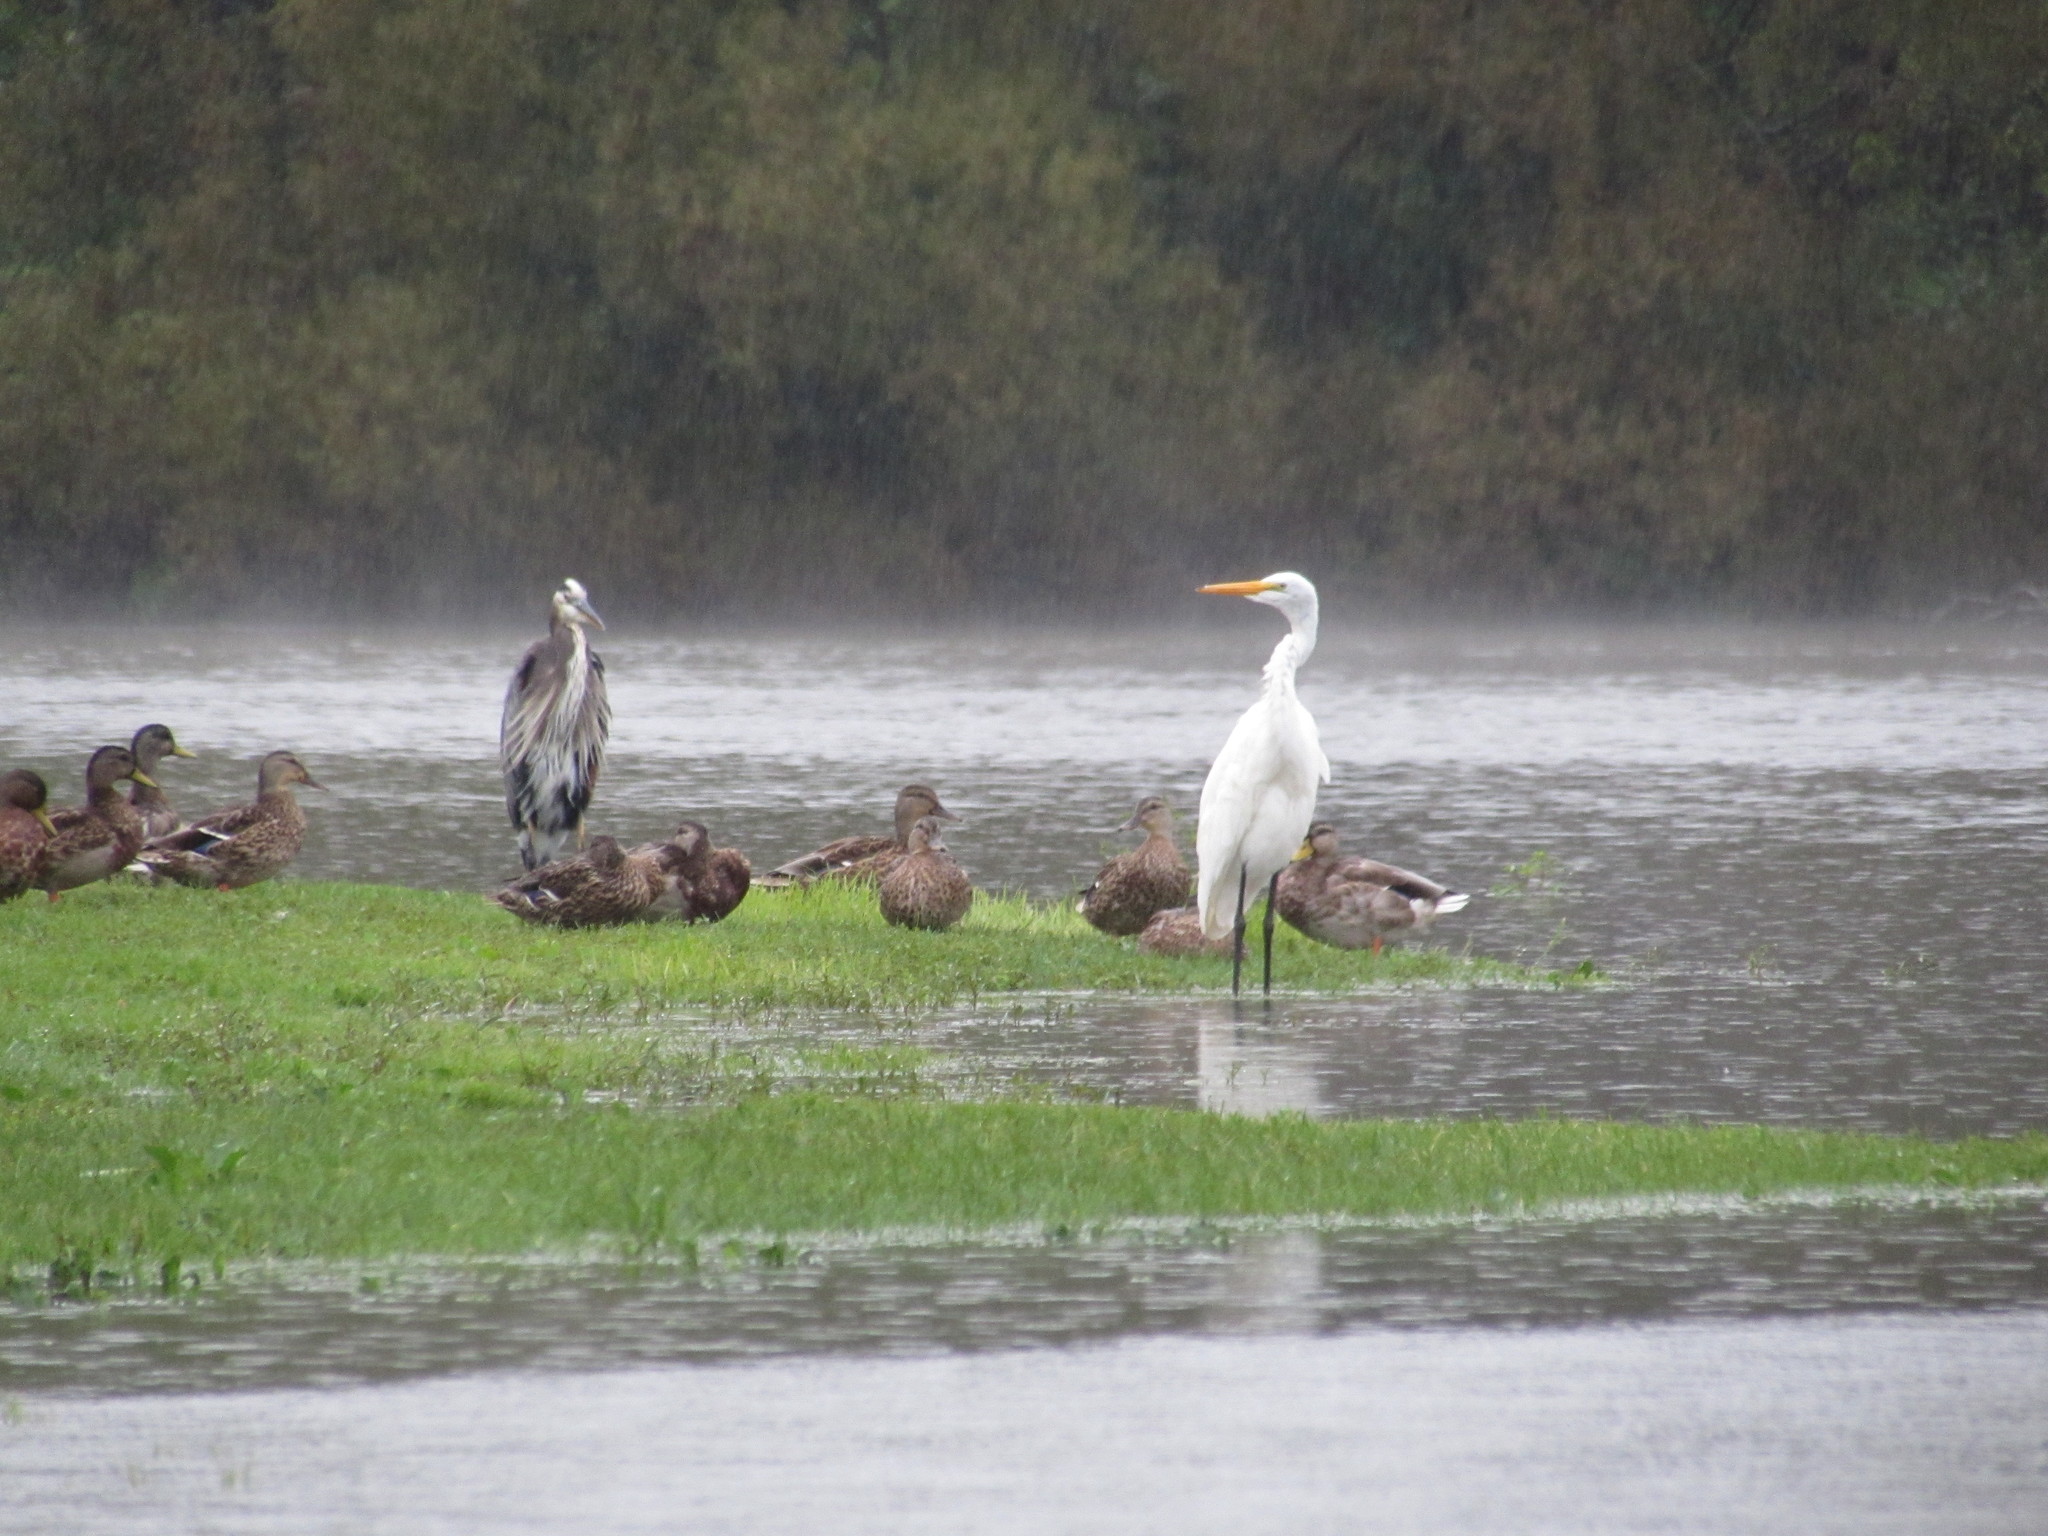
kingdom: Animalia
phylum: Chordata
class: Aves
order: Pelecaniformes
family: Ardeidae
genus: Ardea
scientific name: Ardea alba
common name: Great egret
